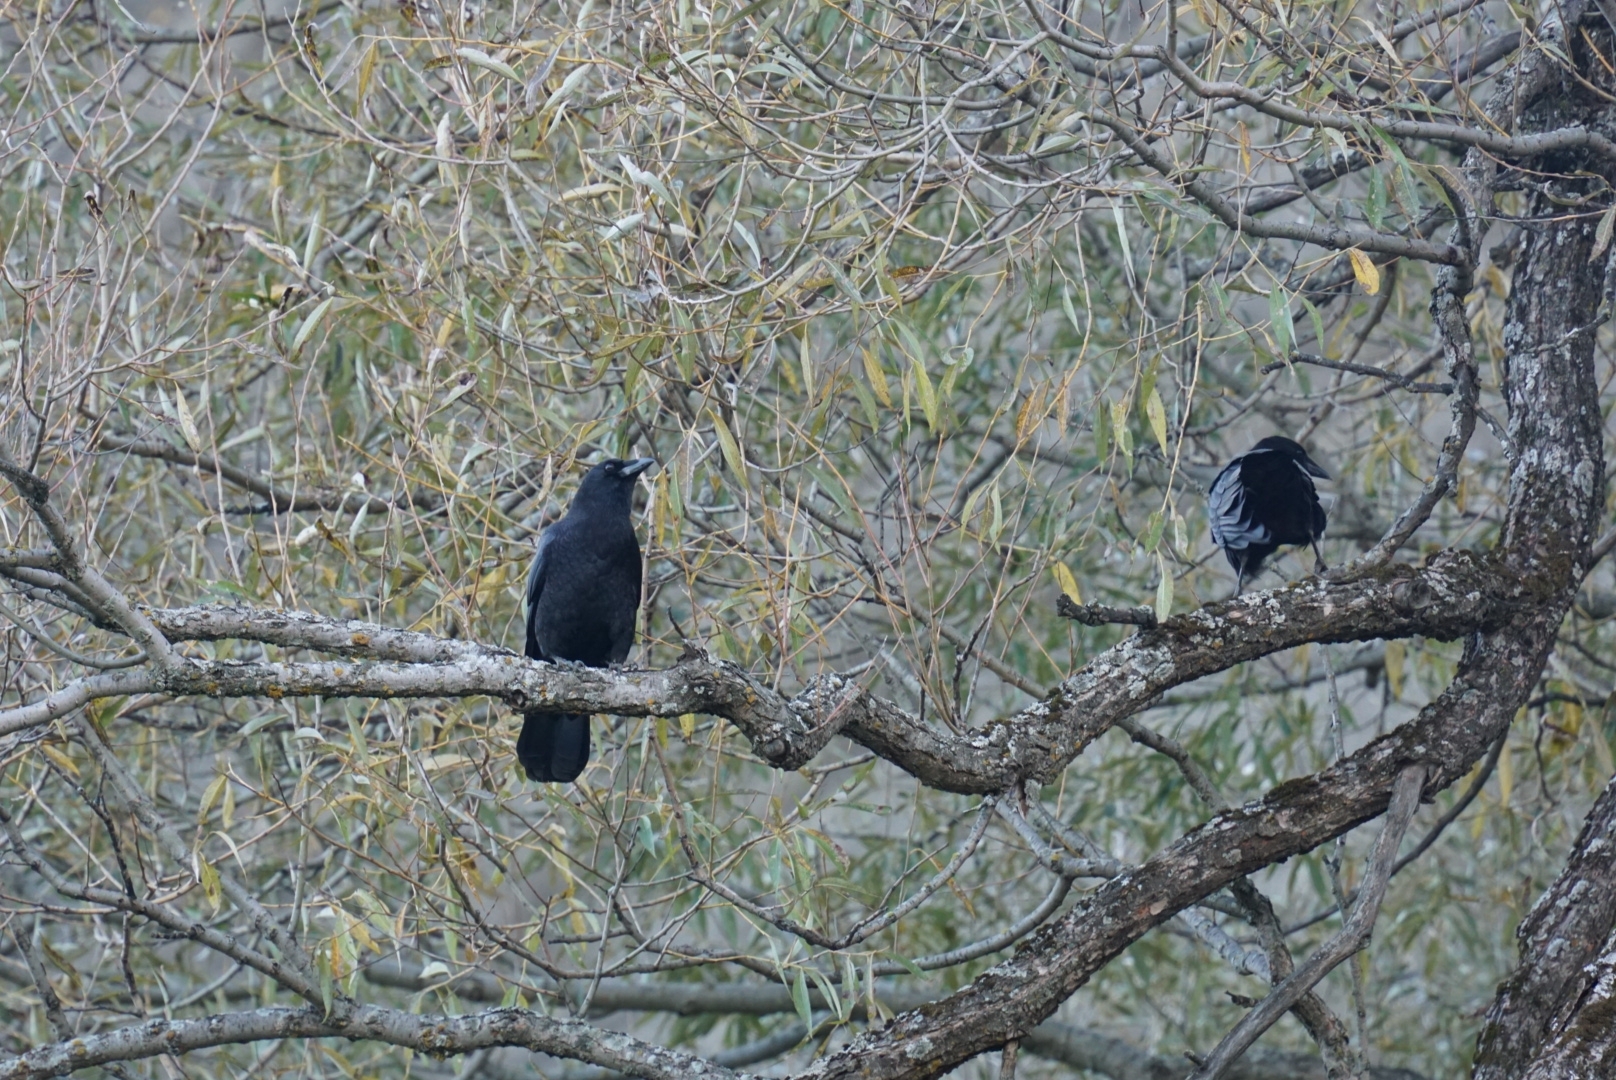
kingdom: Animalia
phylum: Chordata
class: Aves
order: Passeriformes
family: Corvidae
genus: Corvus
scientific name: Corvus brachyrhynchos
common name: American crow
